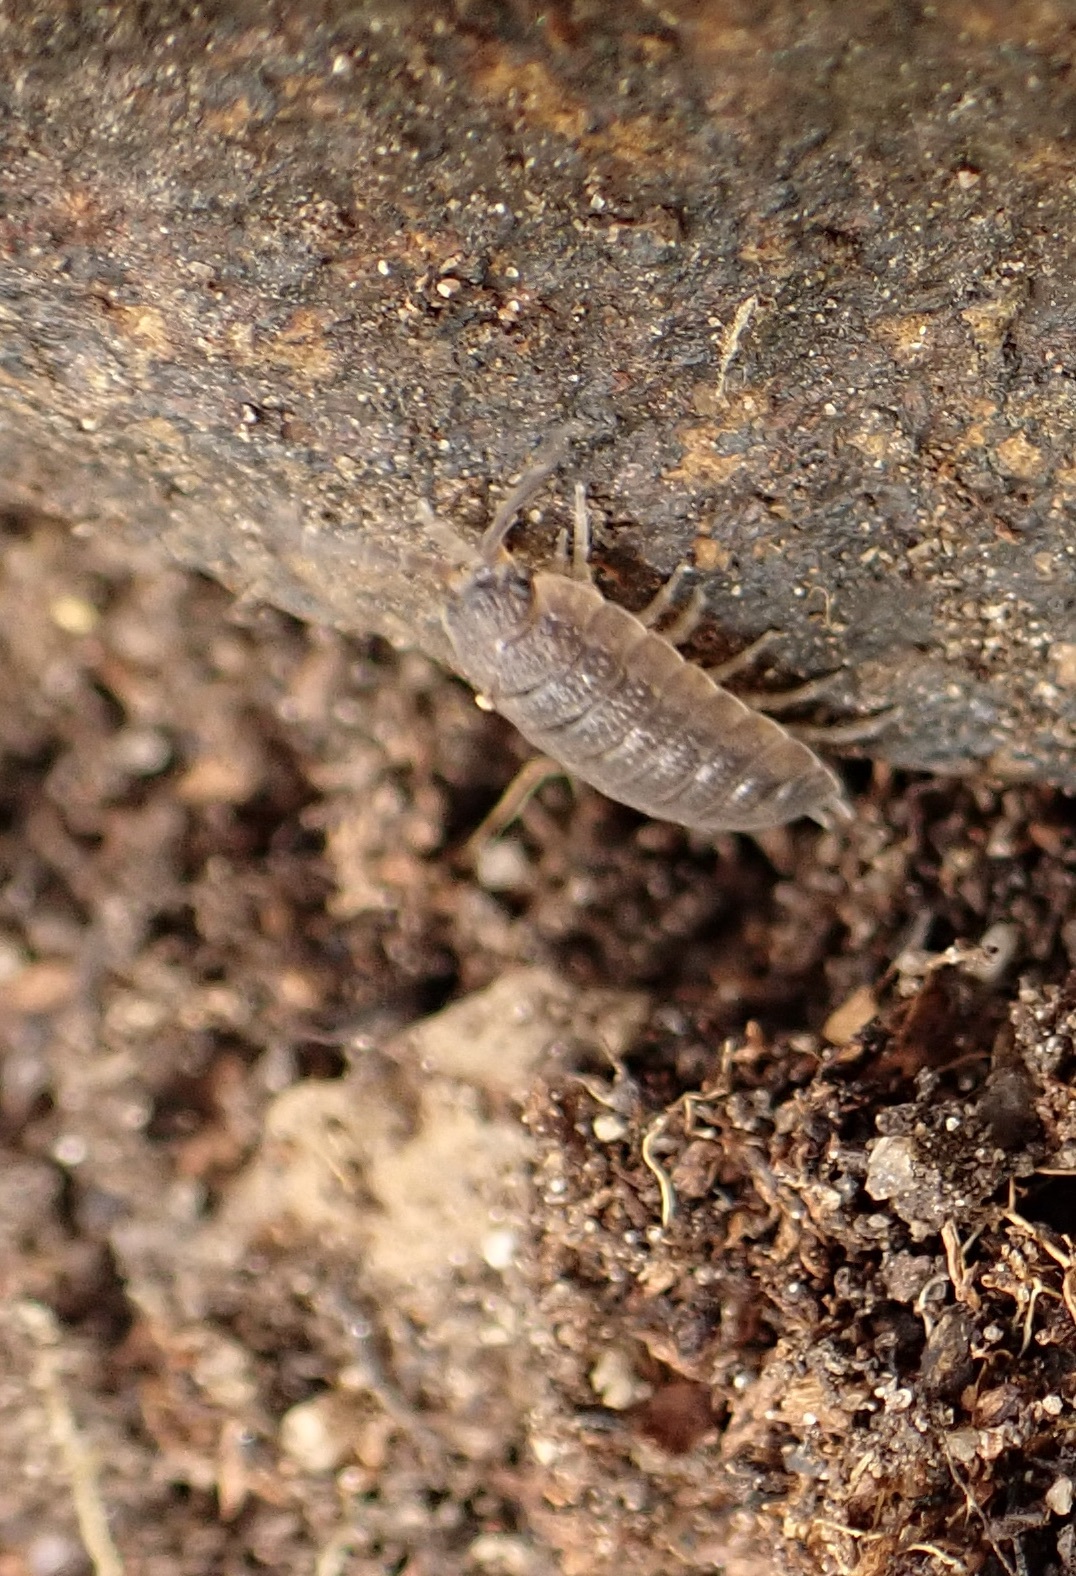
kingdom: Animalia
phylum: Arthropoda
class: Malacostraca
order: Isopoda
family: Porcellionidae
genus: Porcellio
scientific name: Porcellio scaber
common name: Common rough woodlouse
